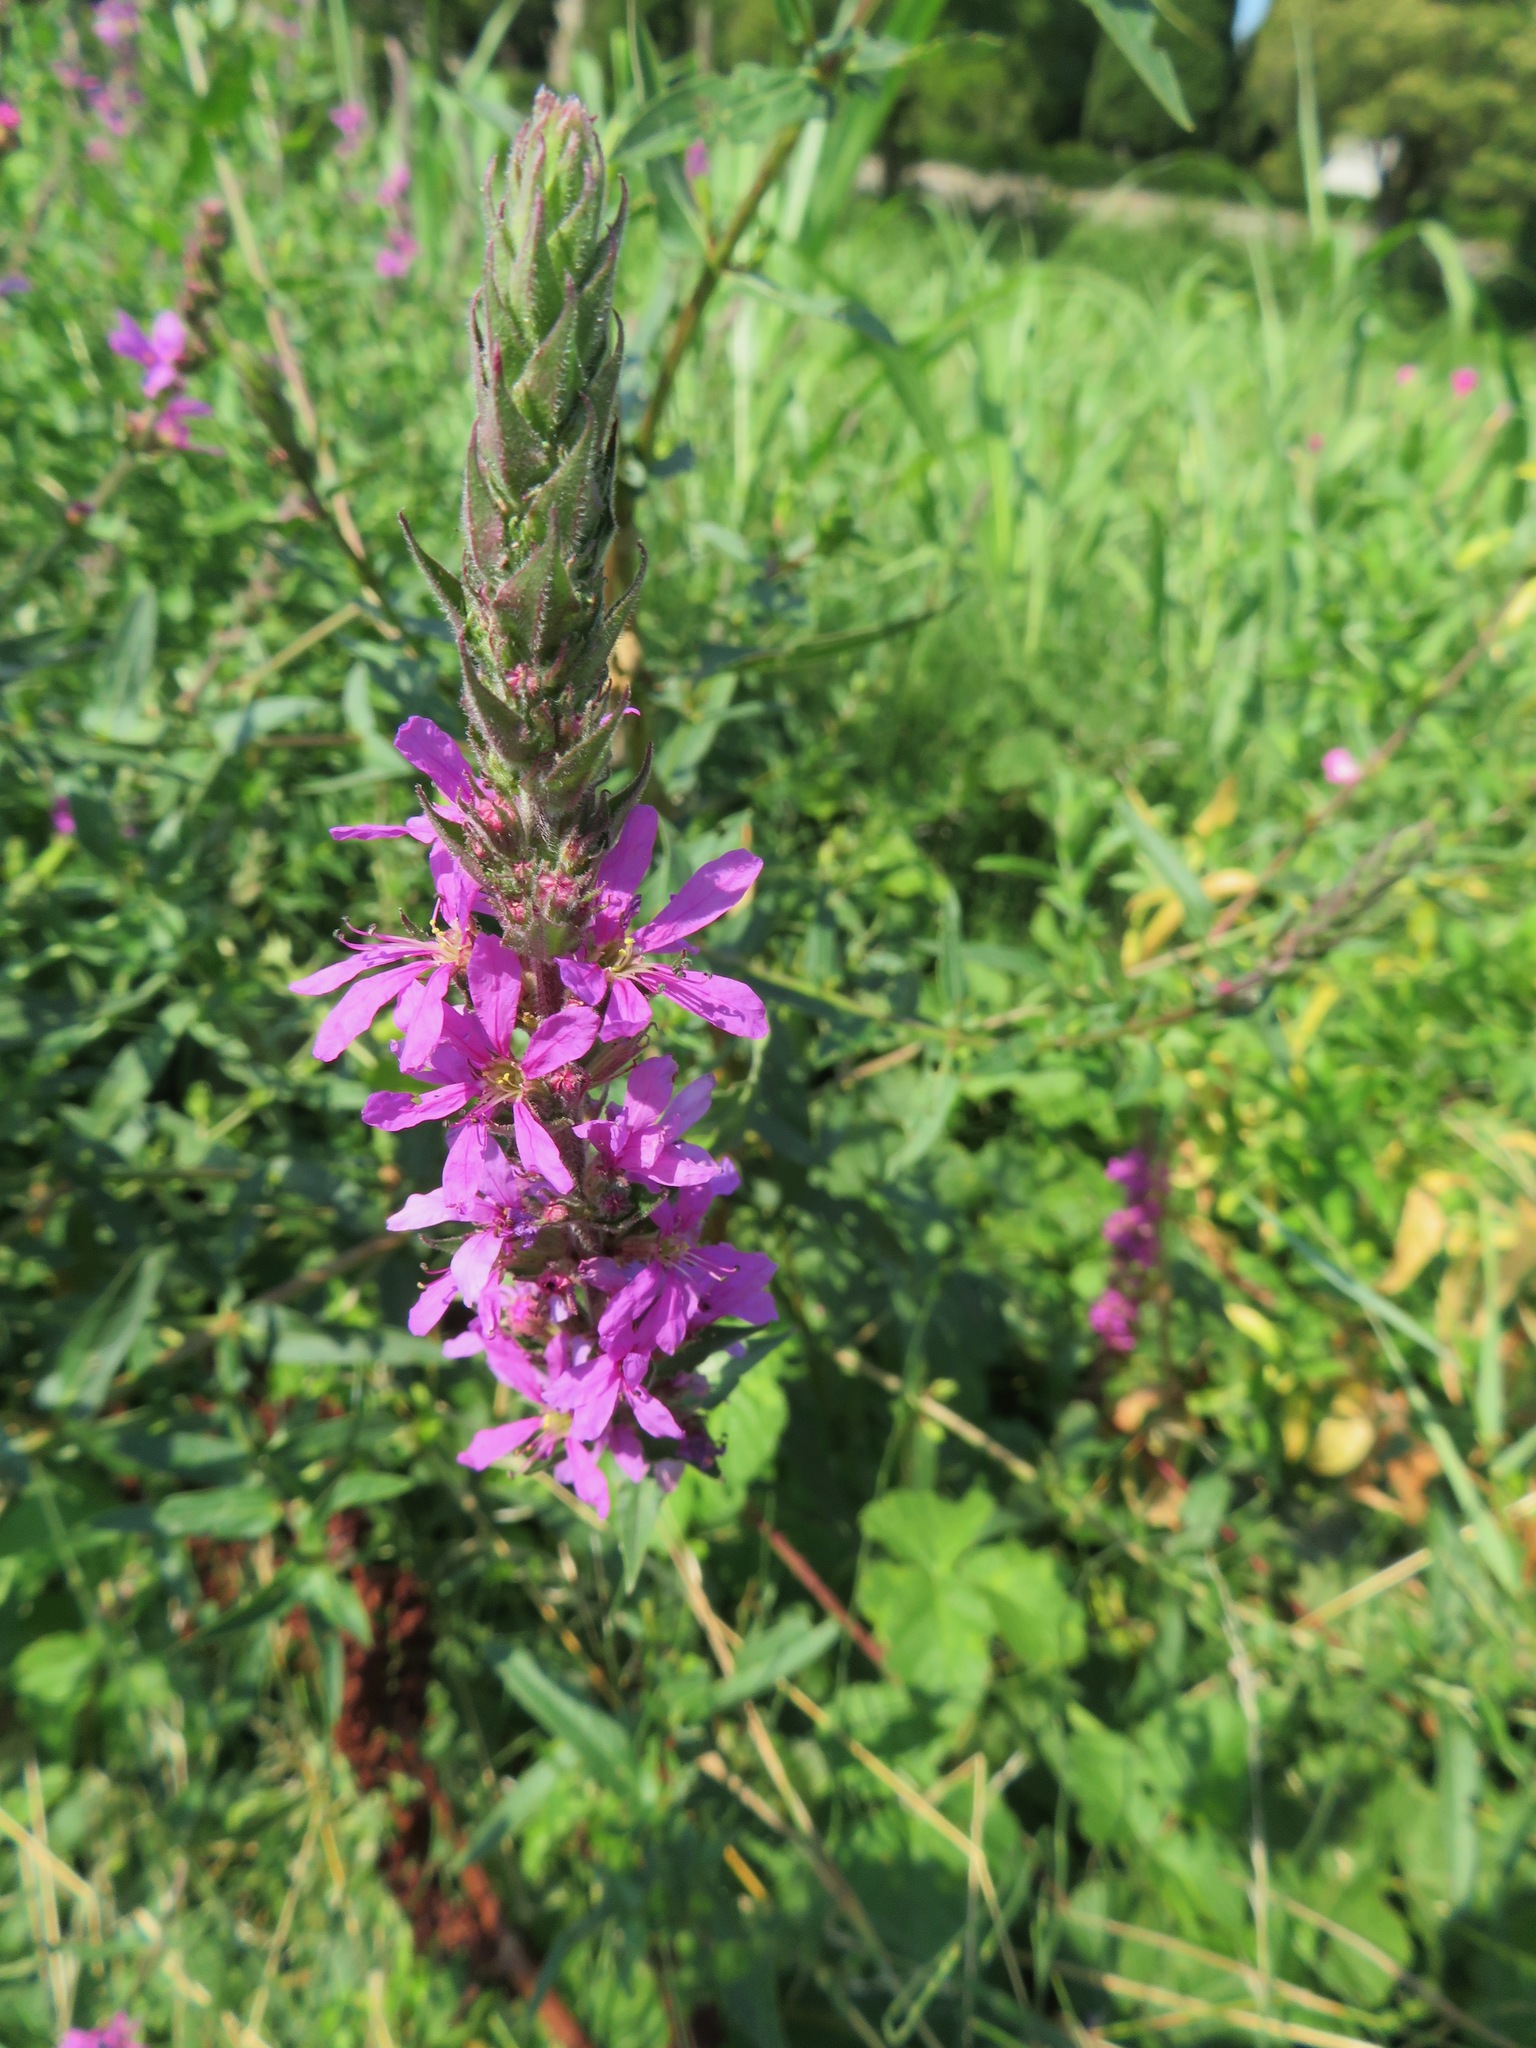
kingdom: Plantae
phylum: Tracheophyta
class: Magnoliopsida
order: Myrtales
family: Lythraceae
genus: Lythrum
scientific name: Lythrum salicaria
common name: Purple loosestrife
